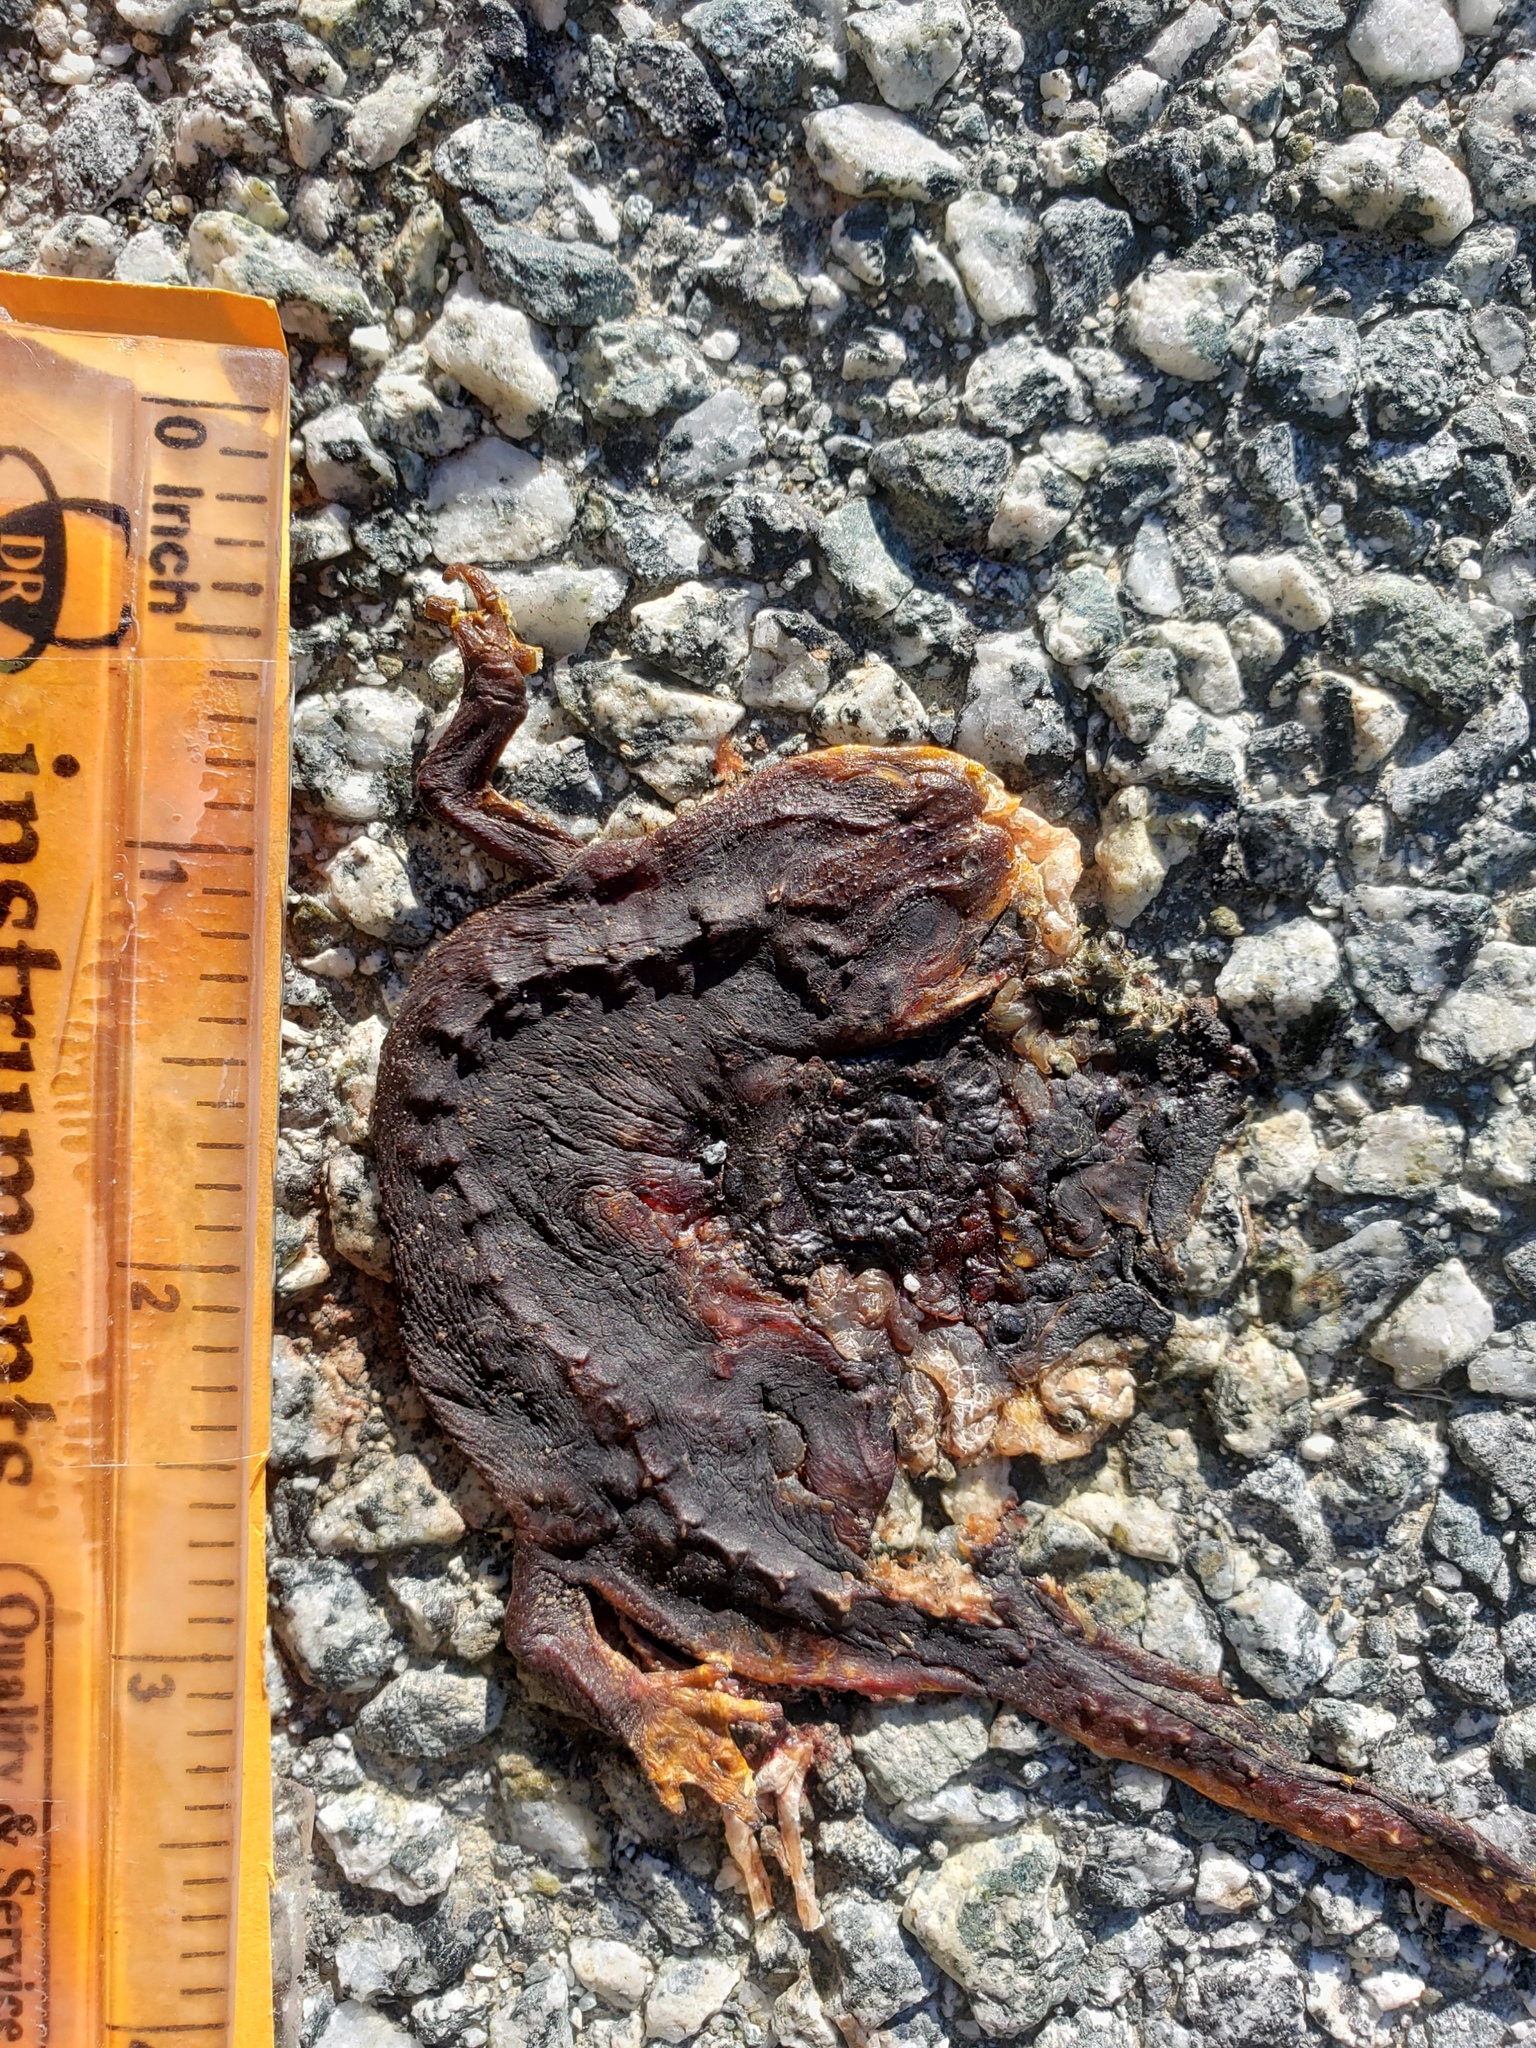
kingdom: Animalia
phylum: Chordata
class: Amphibia
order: Caudata
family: Salamandridae
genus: Taricha
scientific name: Taricha
